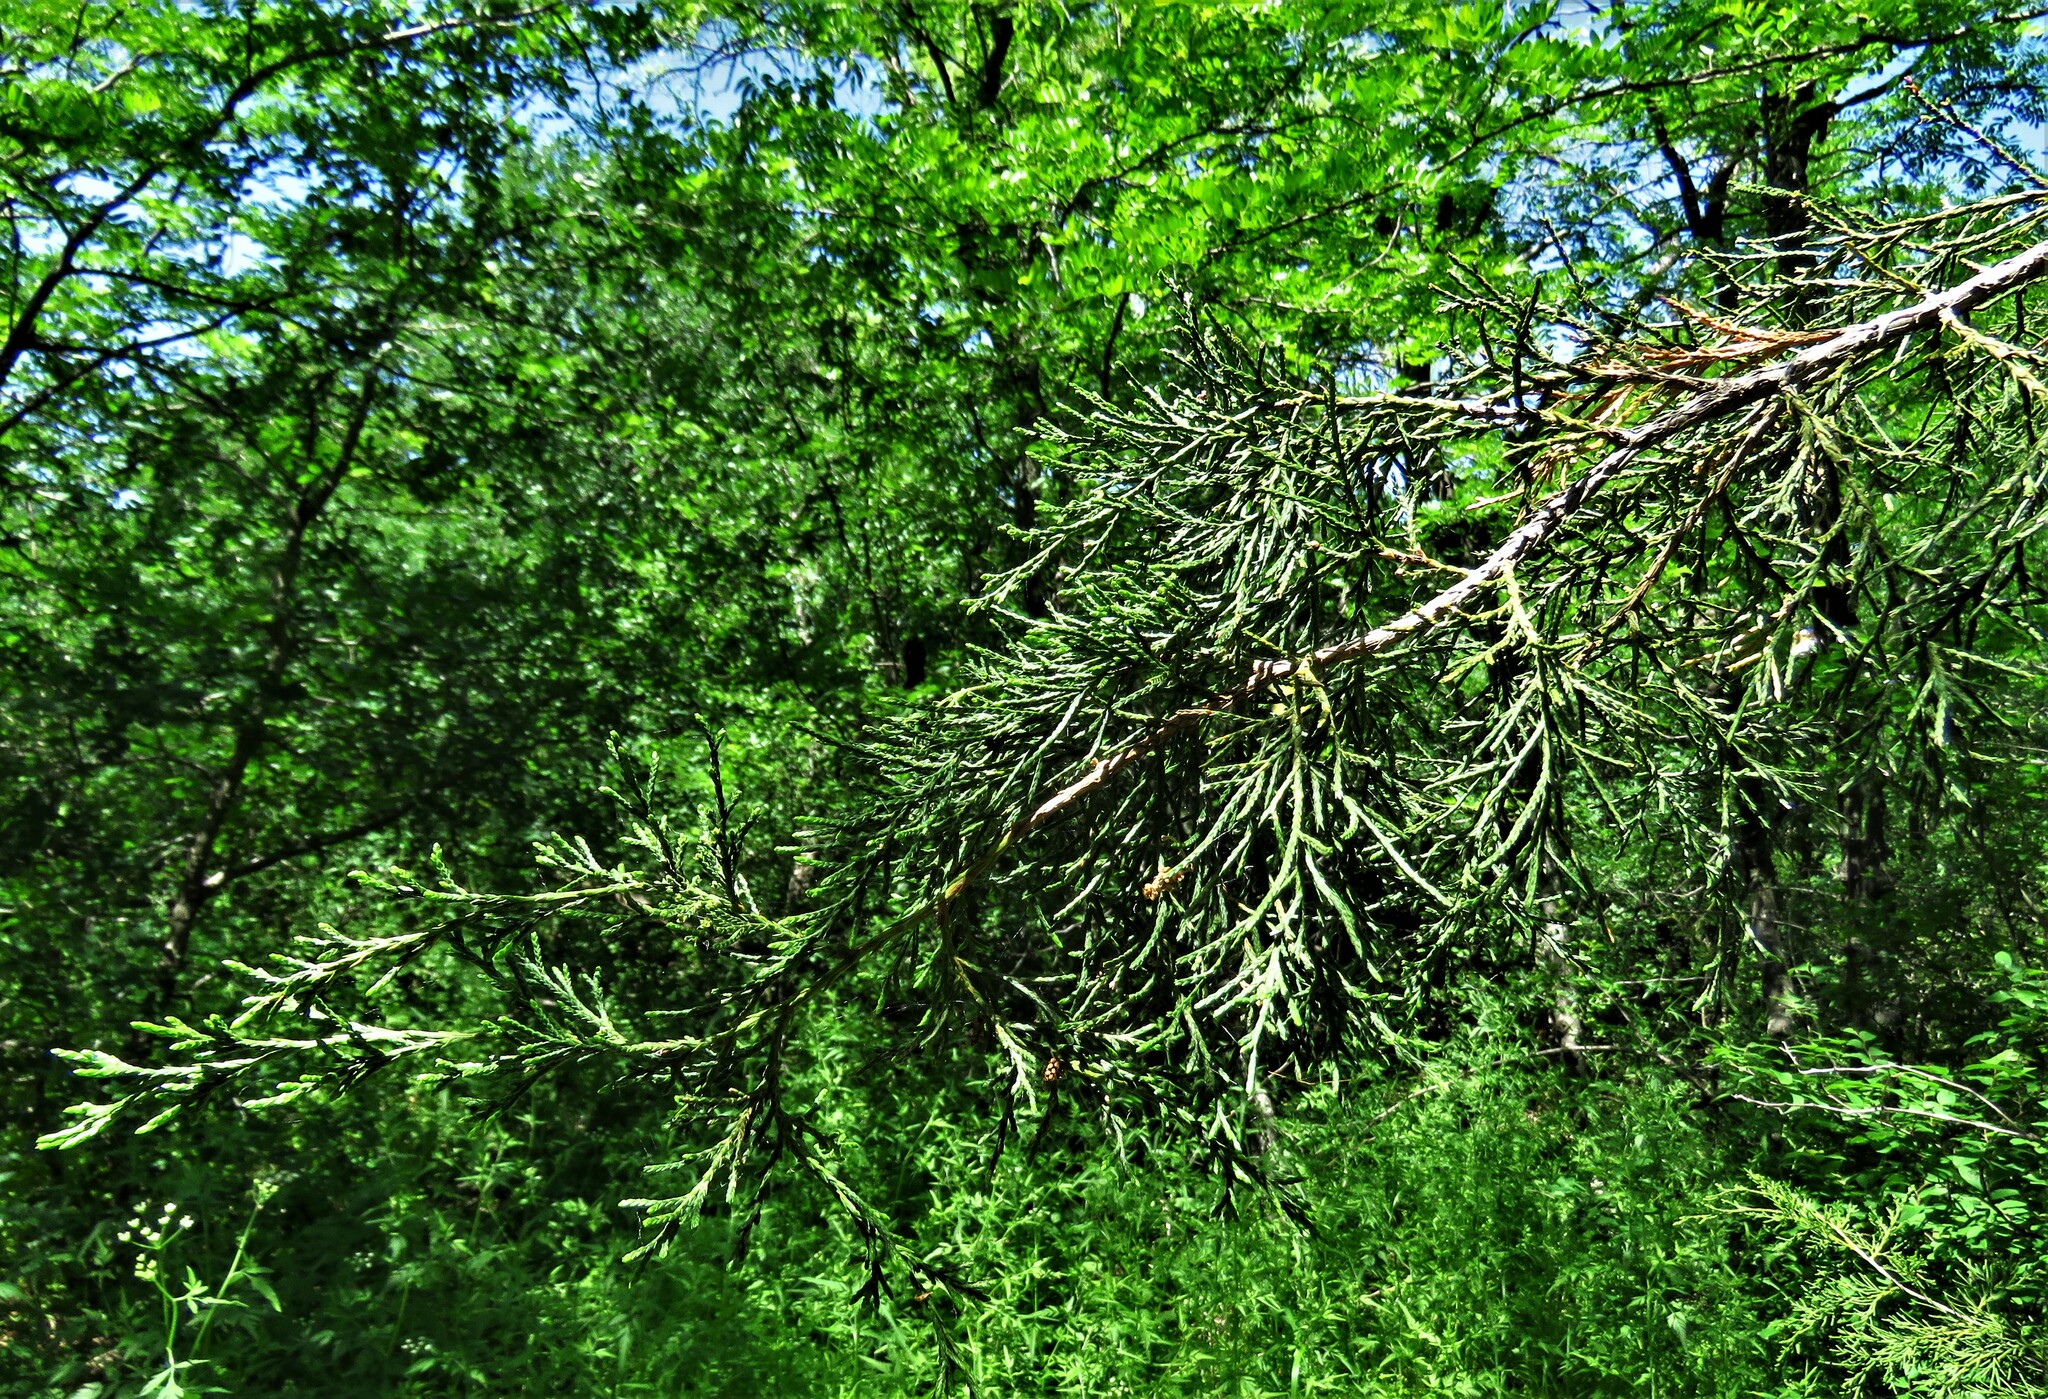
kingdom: Plantae
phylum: Tracheophyta
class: Pinopsida
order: Pinales
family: Cupressaceae
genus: Juniperus
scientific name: Juniperus virginiana
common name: Red juniper
